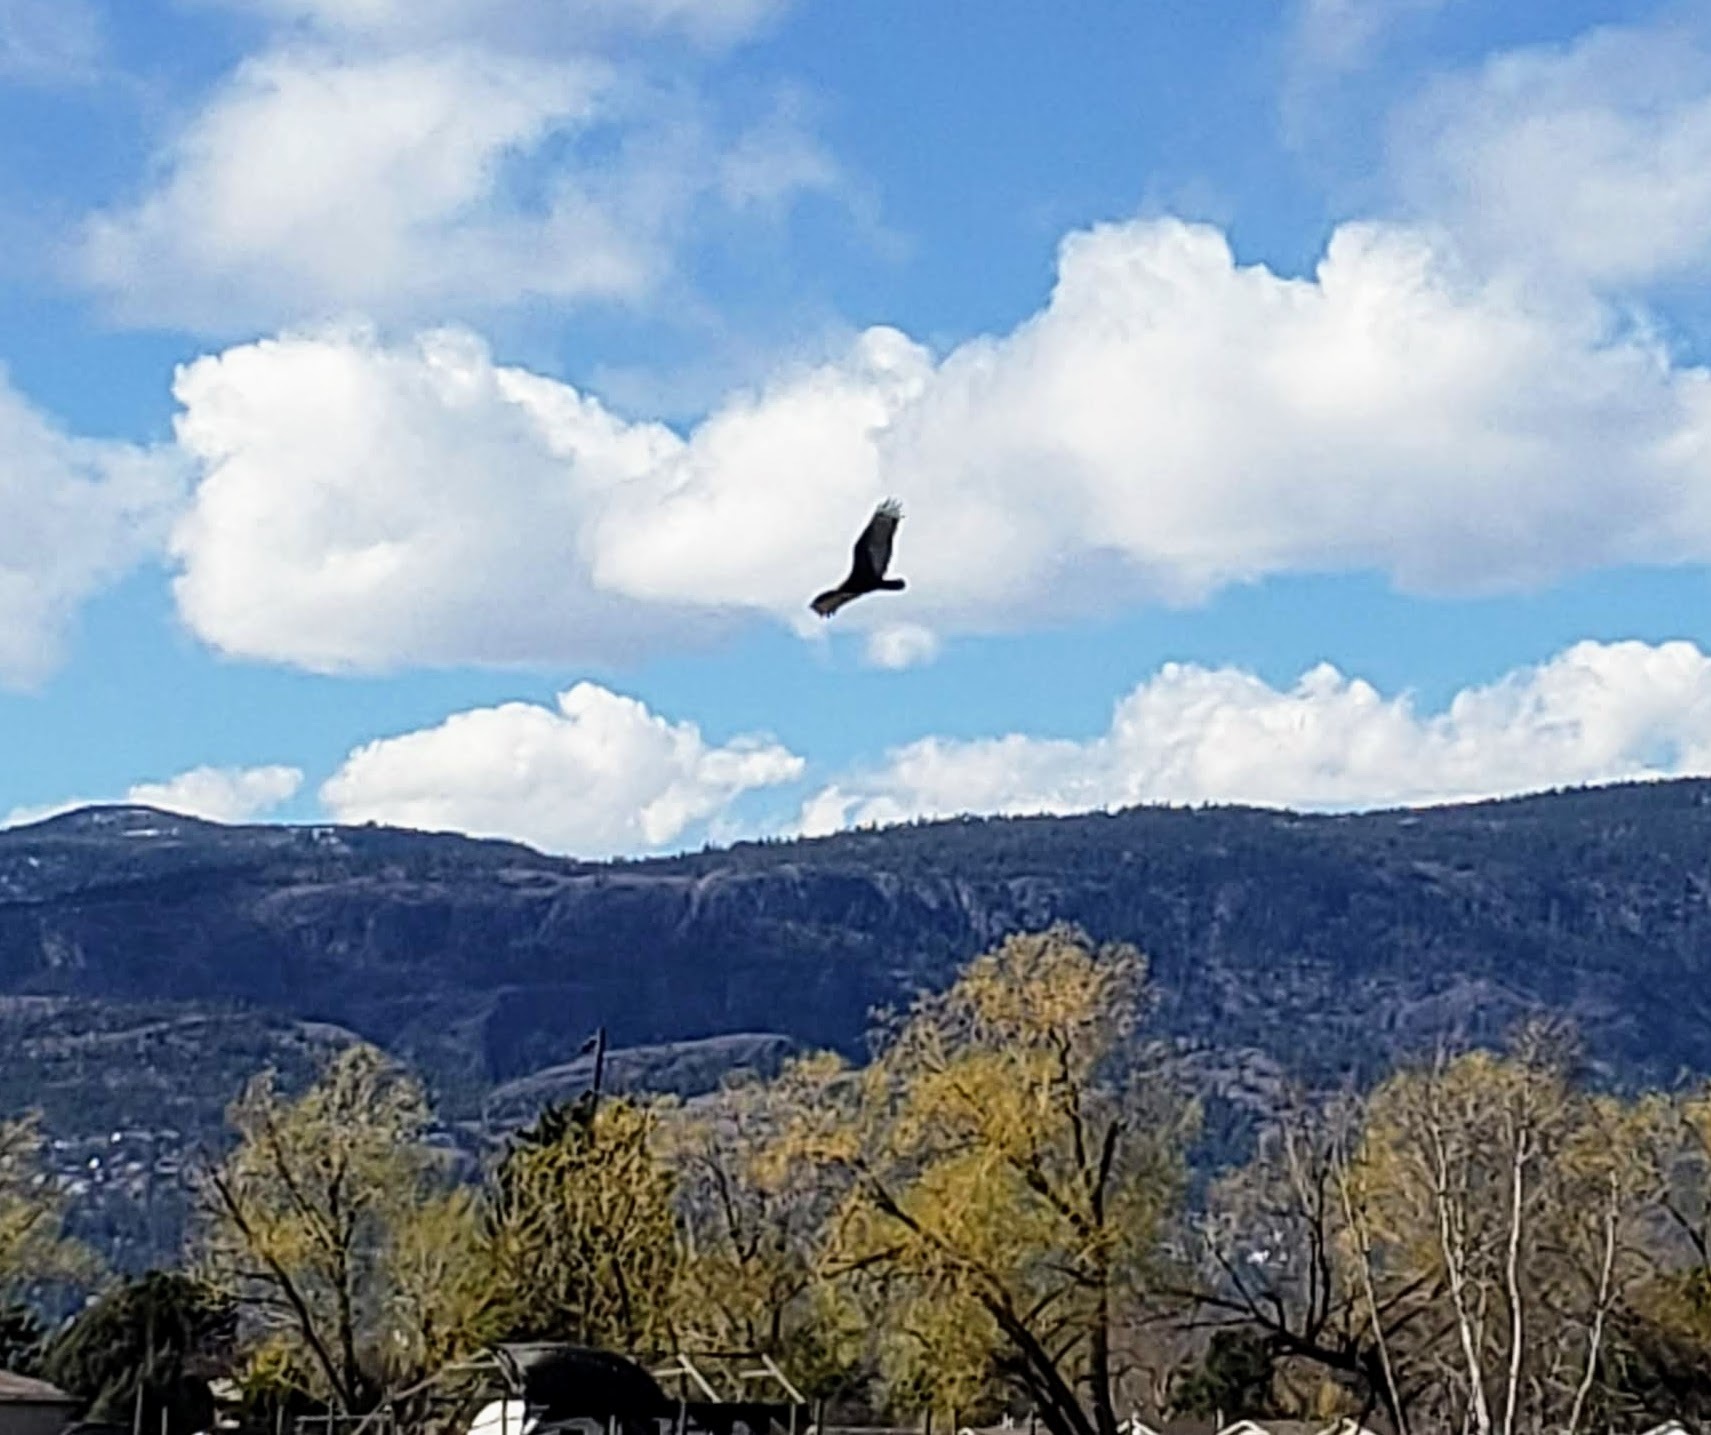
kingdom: Animalia
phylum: Chordata
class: Aves
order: Accipitriformes
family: Cathartidae
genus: Cathartes
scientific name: Cathartes aura
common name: Turkey vulture
